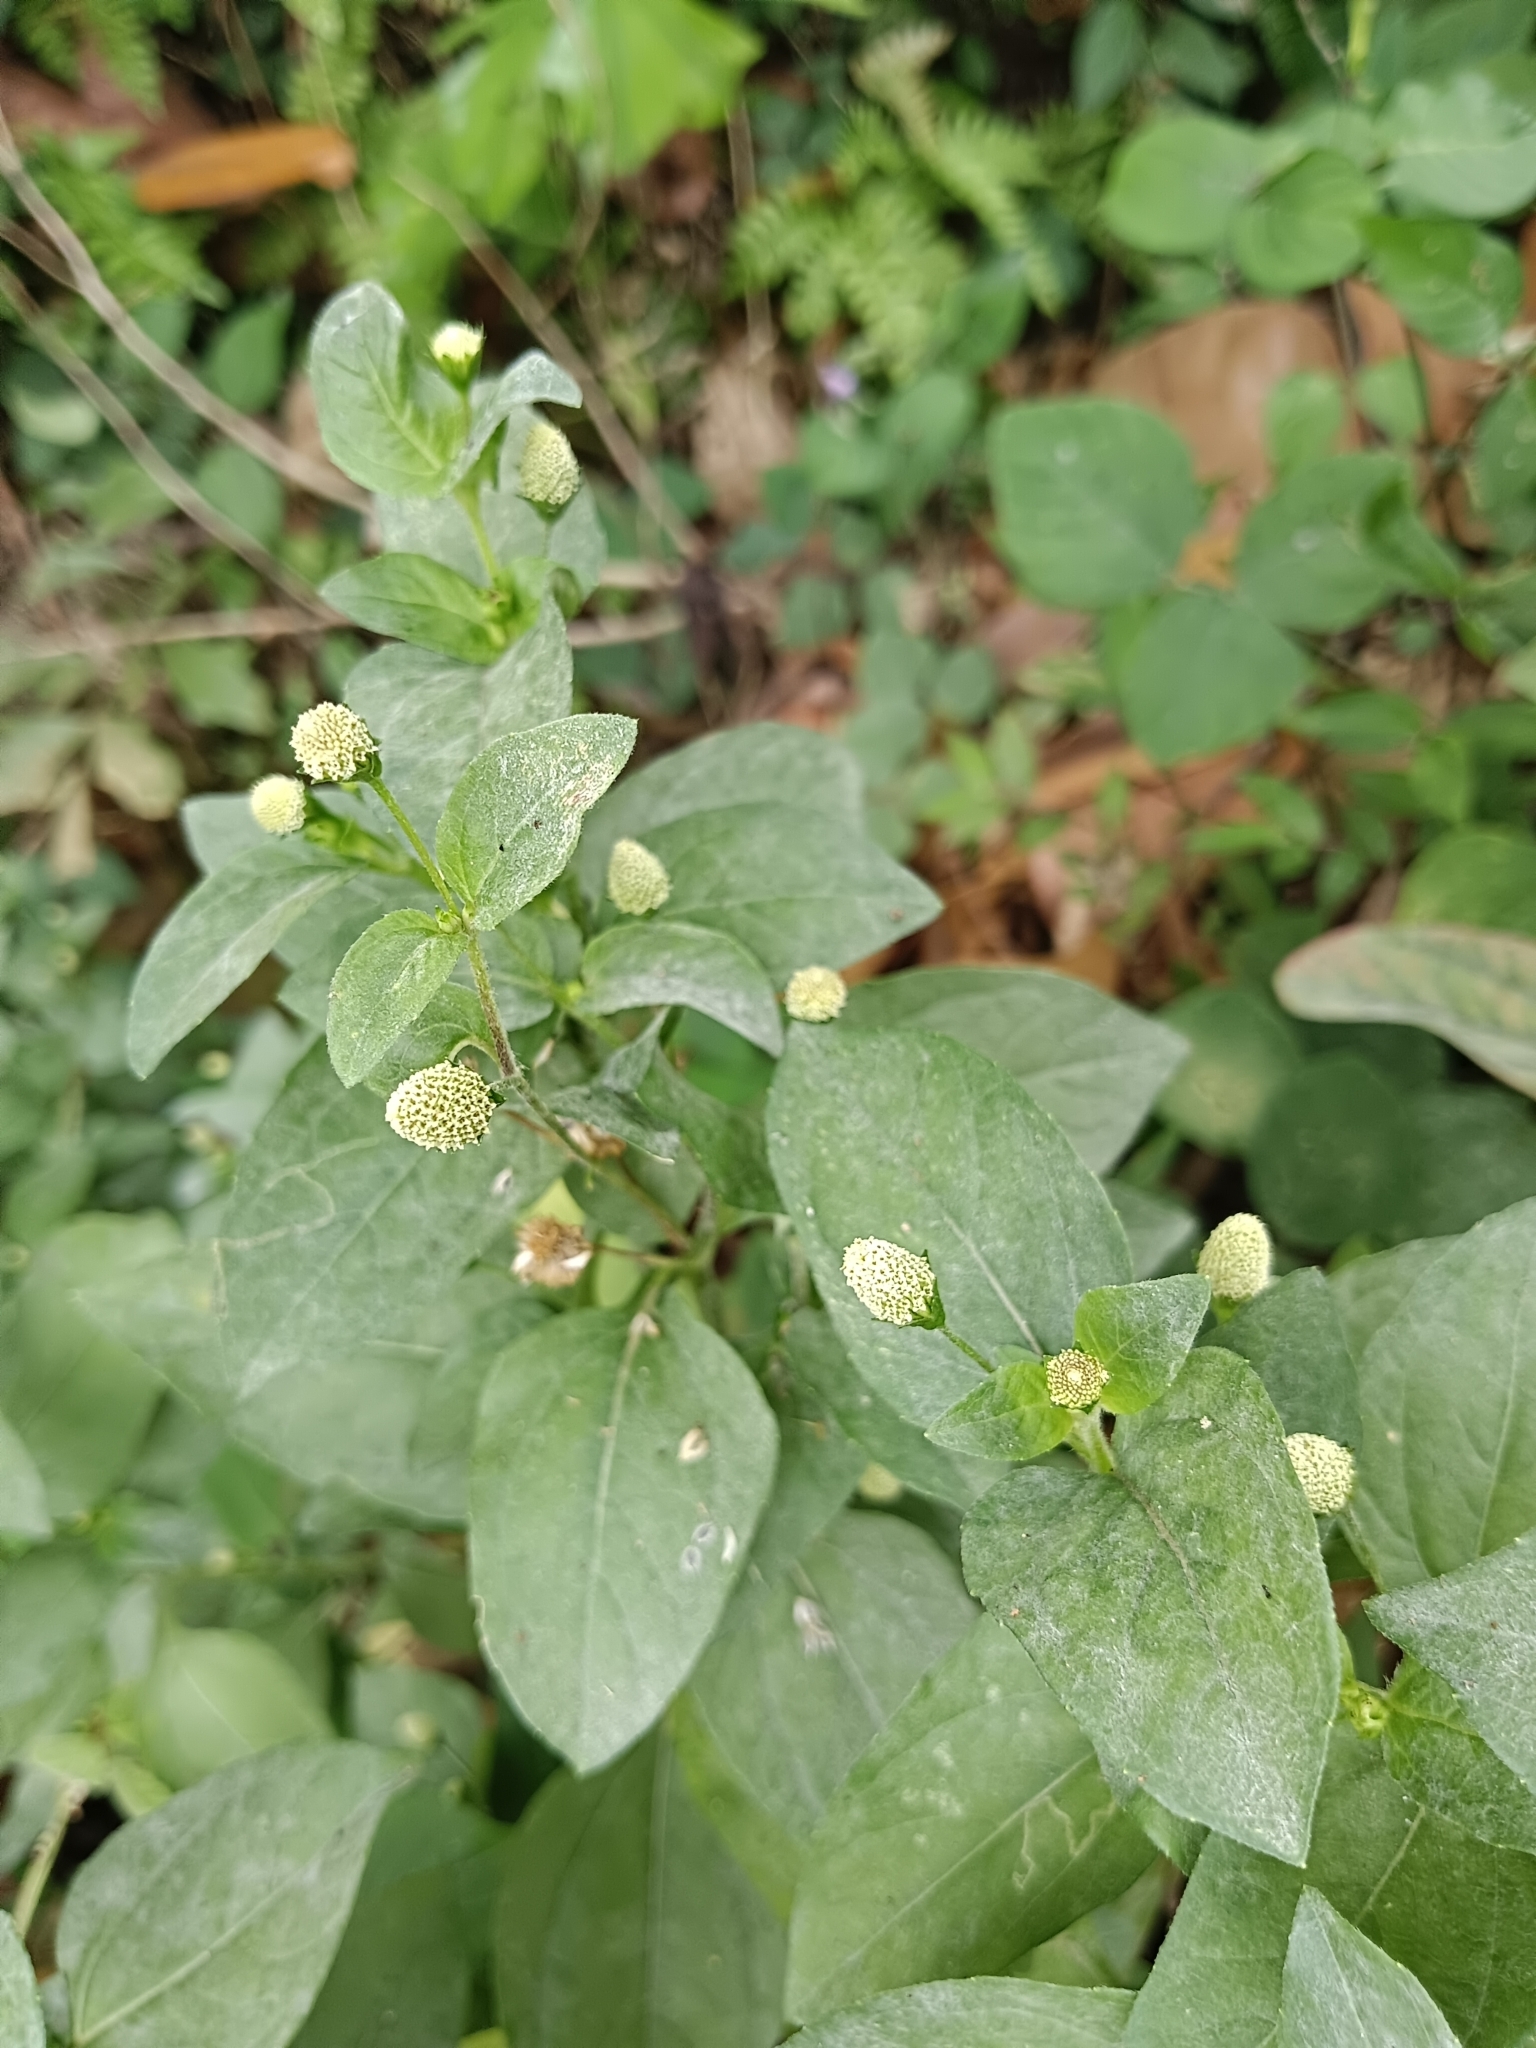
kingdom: Plantae
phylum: Tracheophyta
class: Magnoliopsida
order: Asterales
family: Asteraceae
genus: Acmella
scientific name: Acmella radicans
